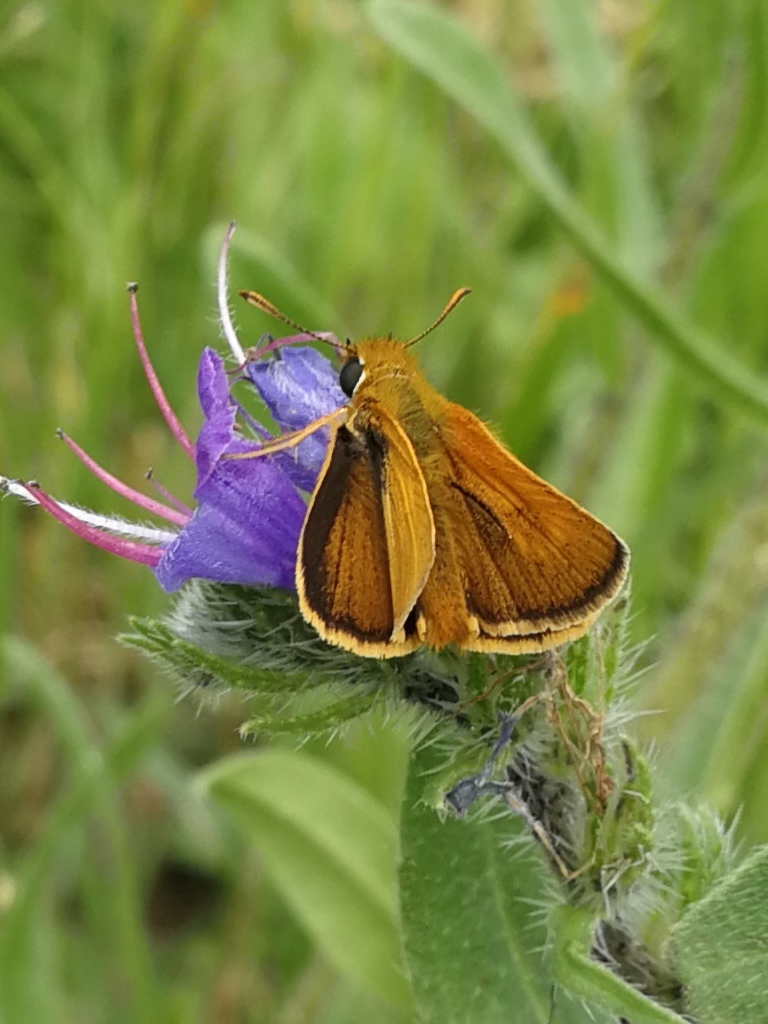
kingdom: Animalia
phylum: Arthropoda
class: Insecta
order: Lepidoptera
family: Hesperiidae
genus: Thymelicus
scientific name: Thymelicus acteon
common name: Lulworth skipper
